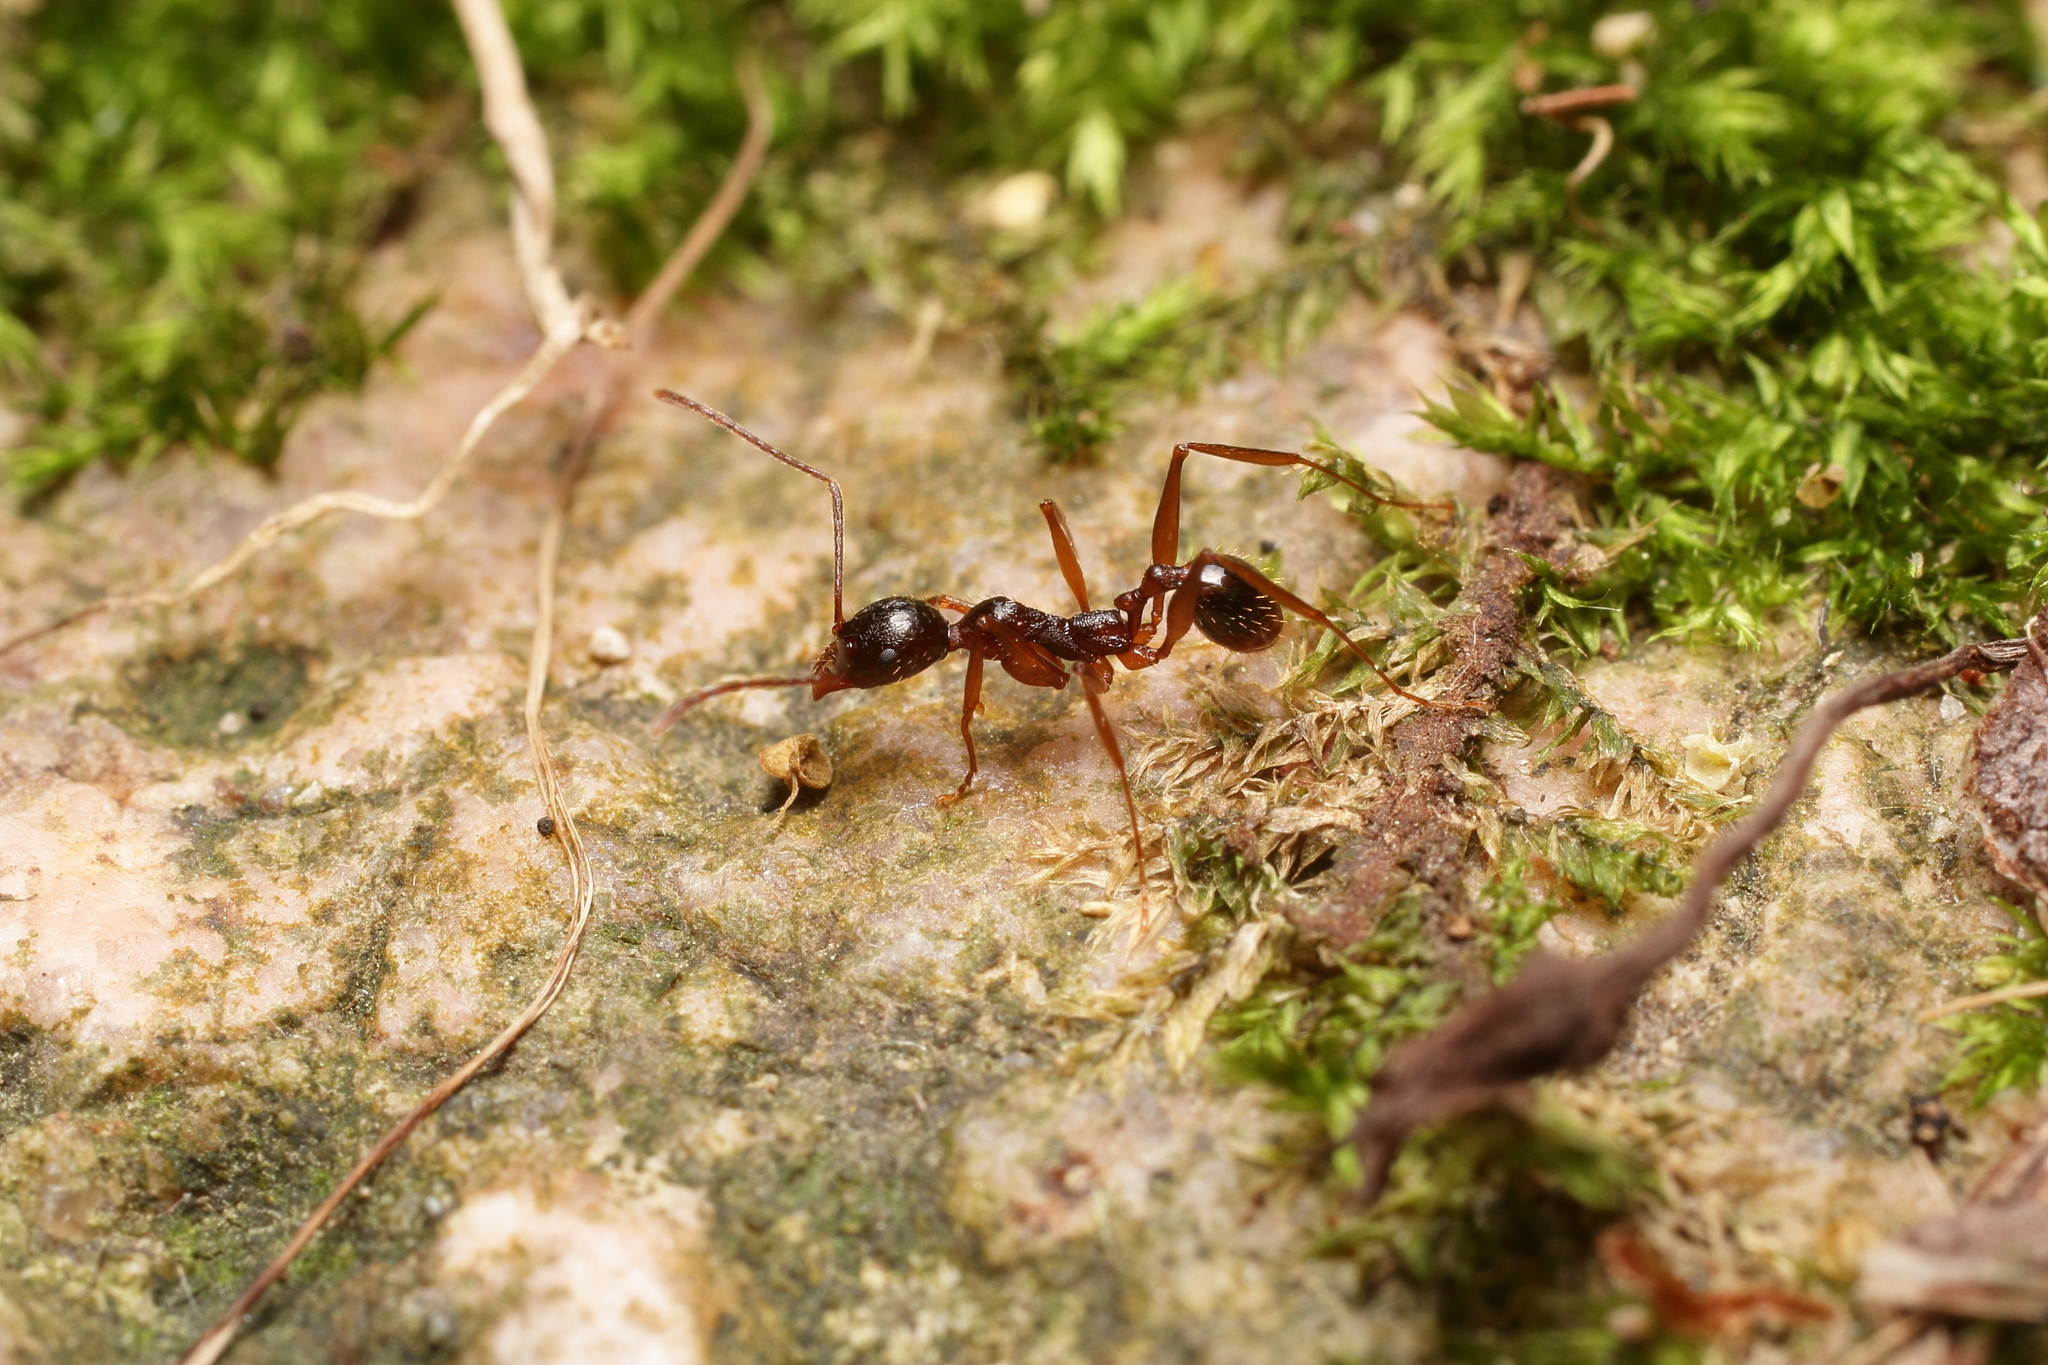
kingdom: Animalia
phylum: Arthropoda
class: Insecta
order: Hymenoptera
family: Formicidae
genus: Aphaenogaster
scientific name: Aphaenogaster famelica
